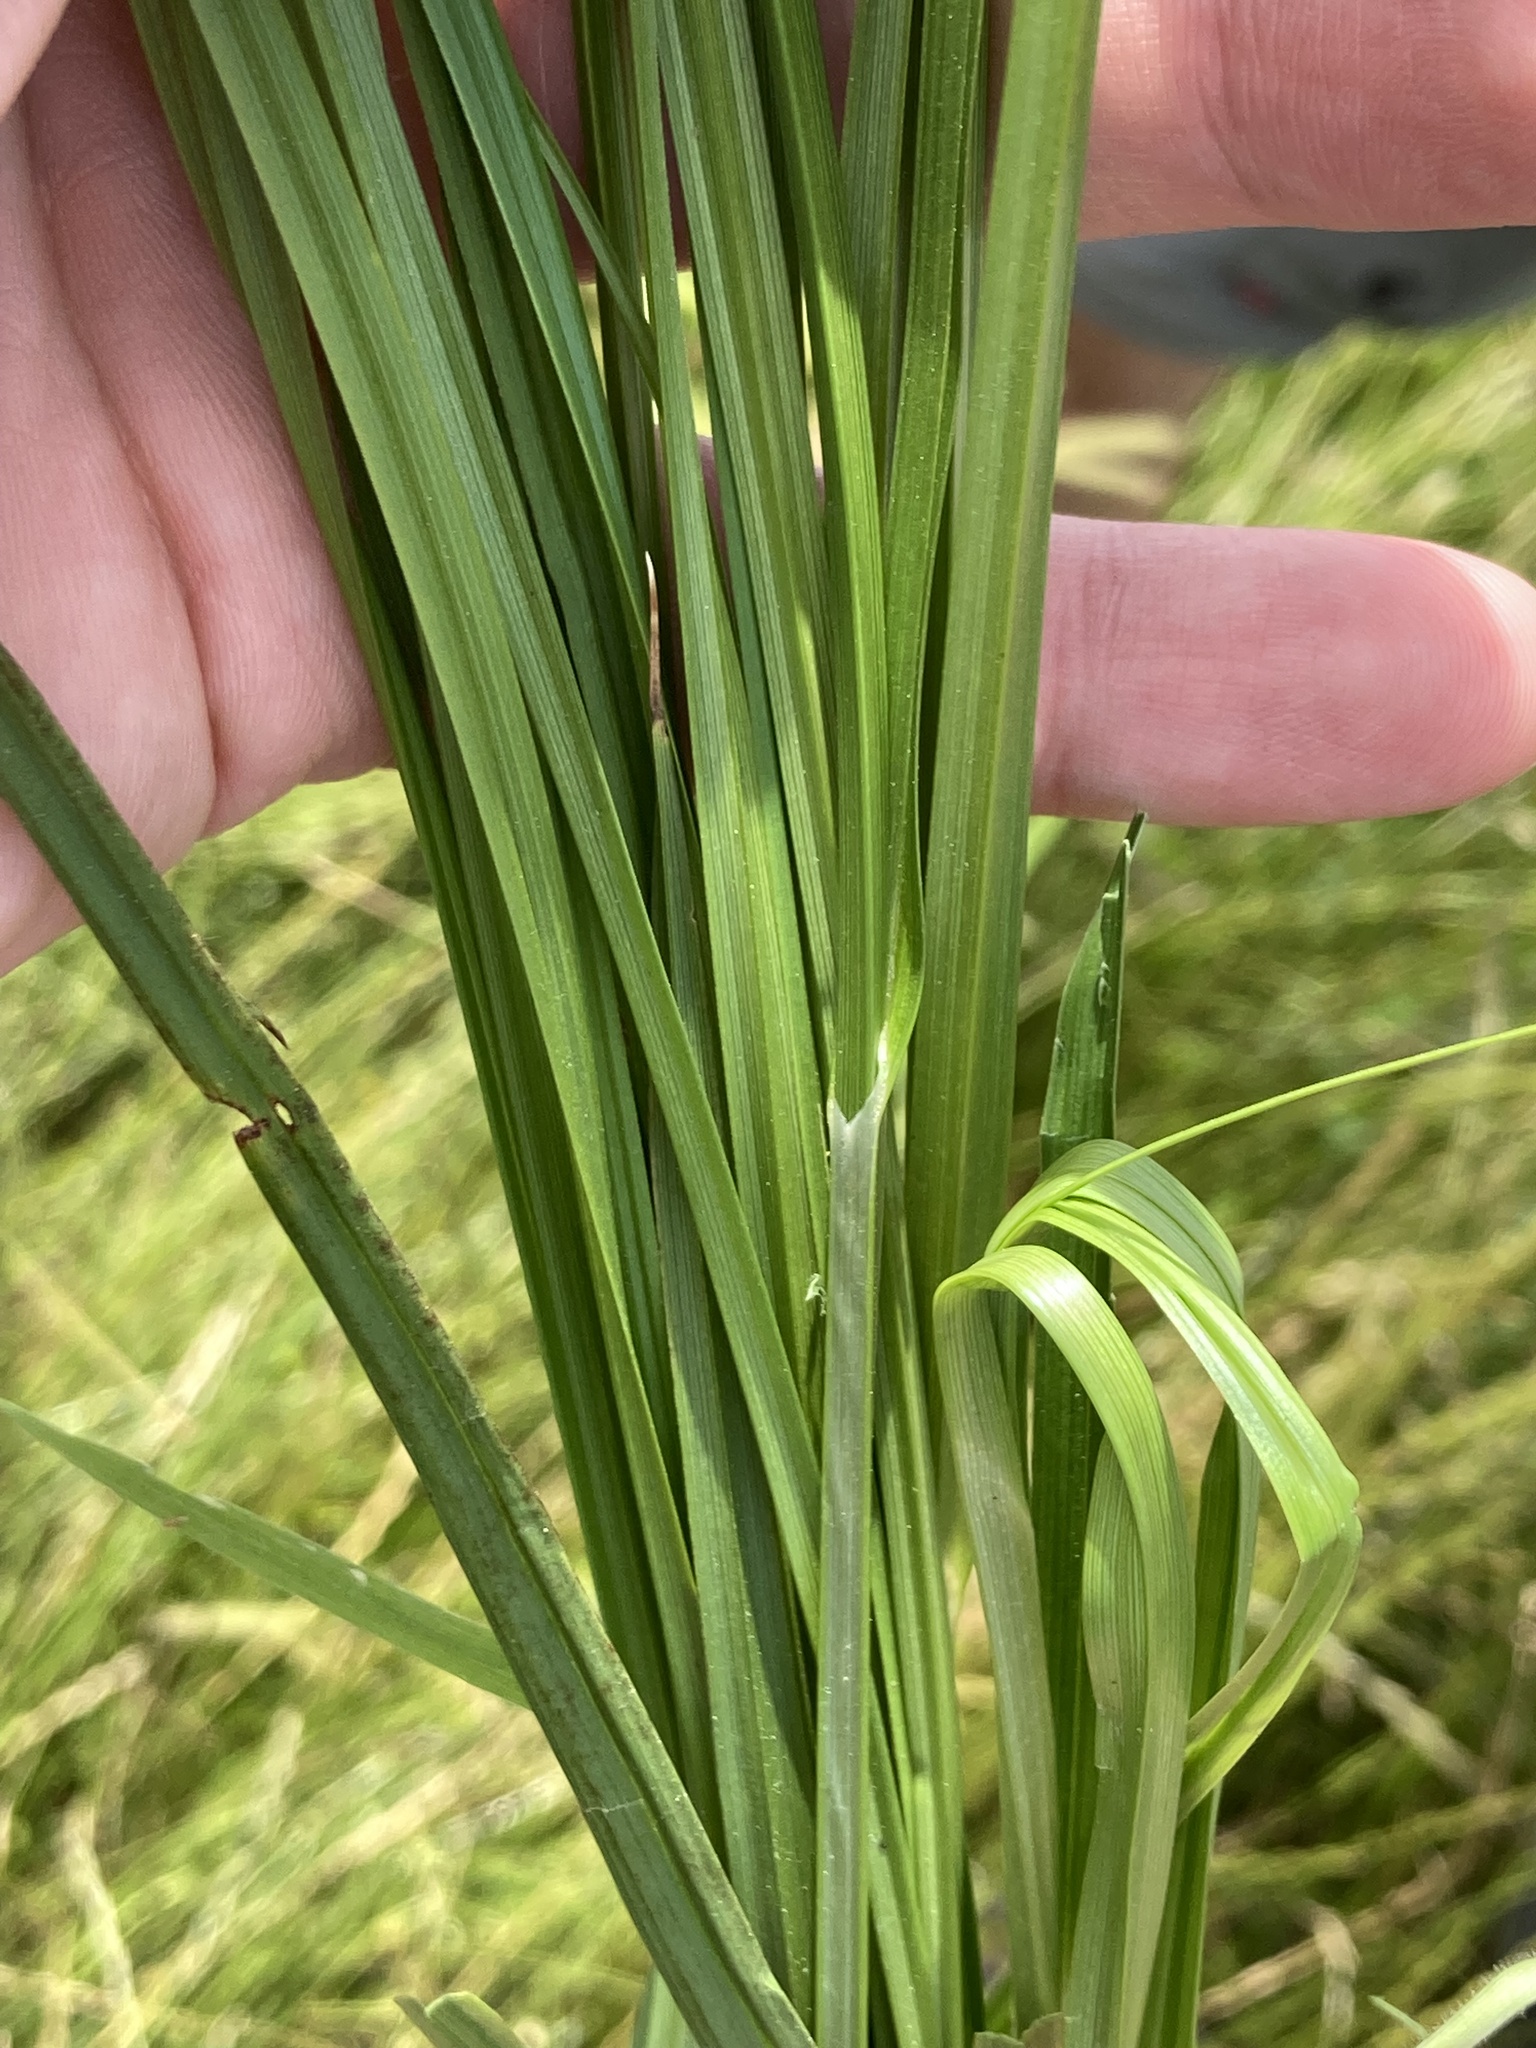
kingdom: Plantae
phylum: Tracheophyta
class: Liliopsida
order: Poales
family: Cyperaceae
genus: Carex
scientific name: Carex otrubae
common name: False fox-sedge
